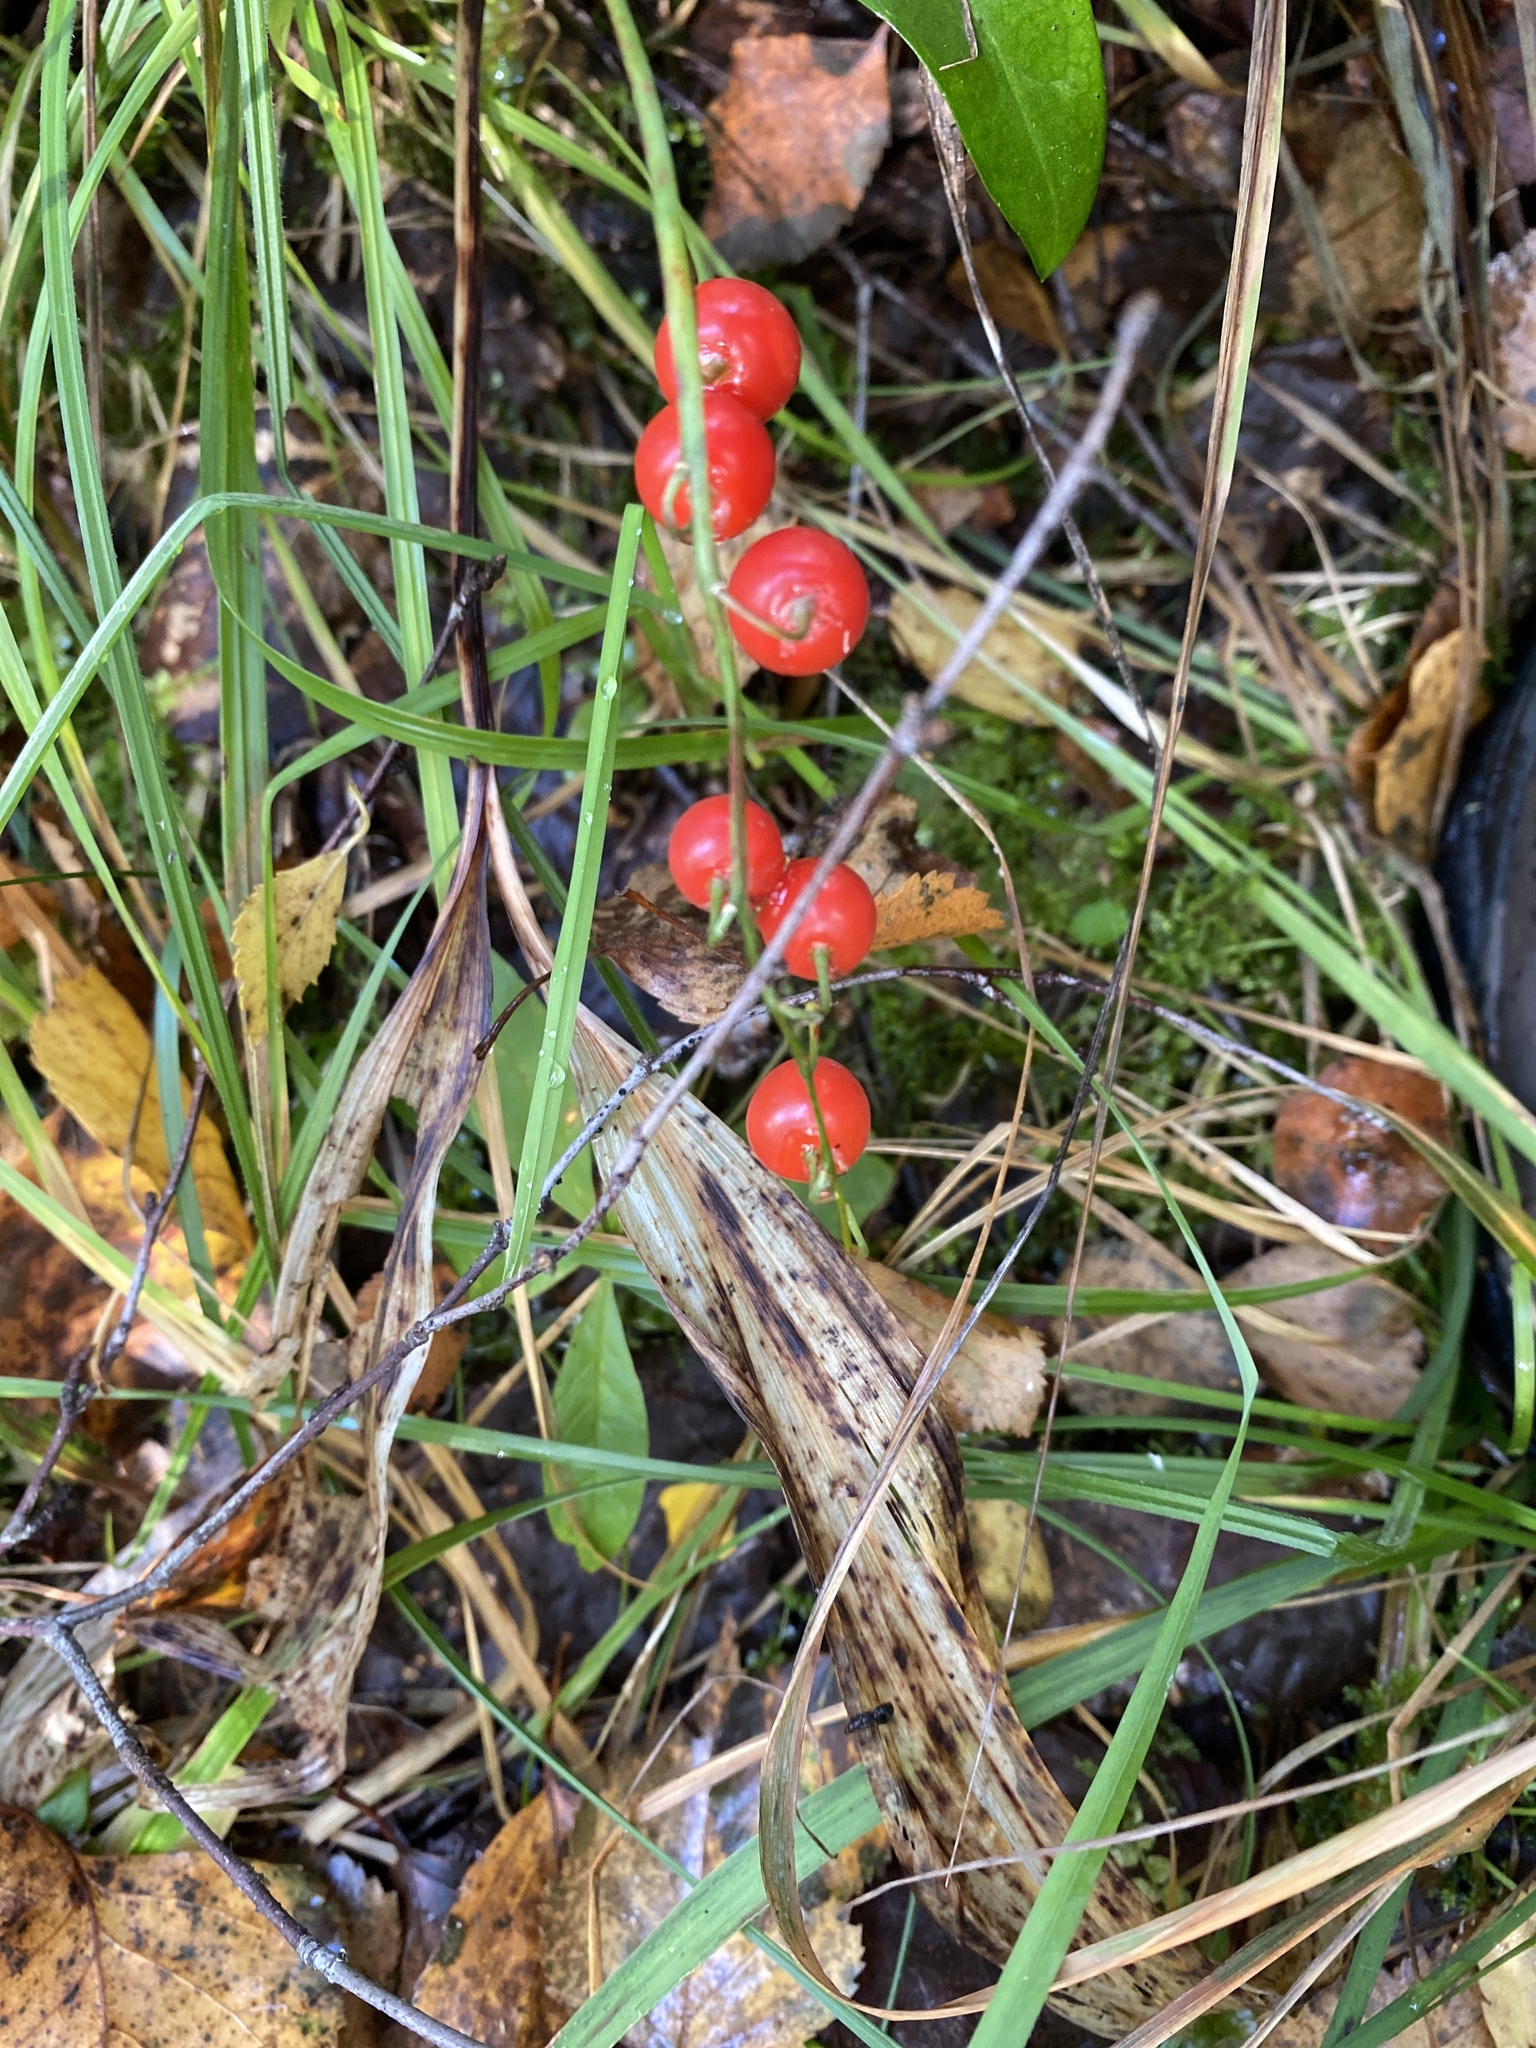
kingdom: Plantae
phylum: Tracheophyta
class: Liliopsida
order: Asparagales
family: Asparagaceae
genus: Convallaria
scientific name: Convallaria majalis
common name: Lily-of-the-valley
